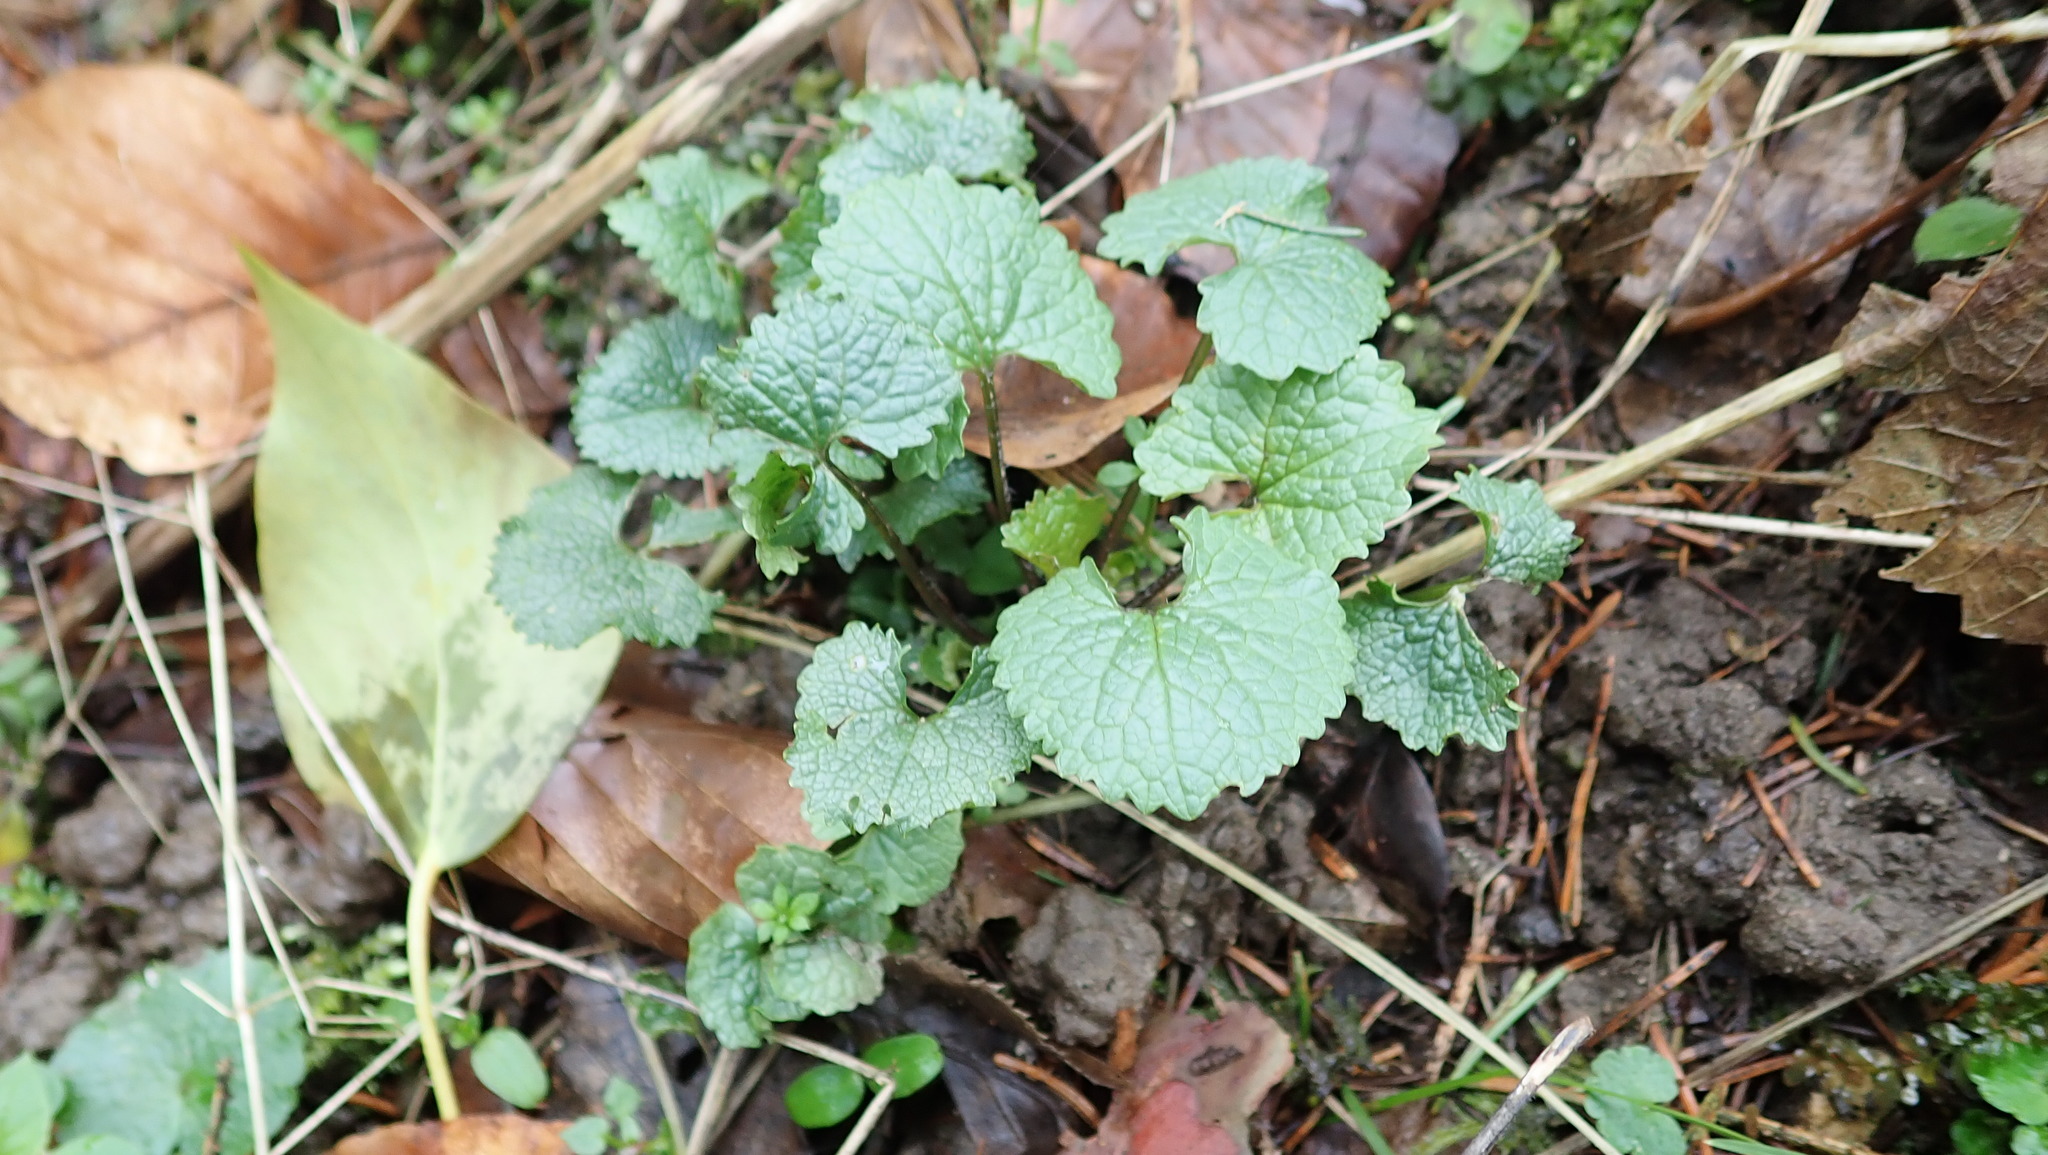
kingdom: Plantae
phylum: Tracheophyta
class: Magnoliopsida
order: Brassicales
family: Brassicaceae
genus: Alliaria
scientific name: Alliaria petiolata
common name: Garlic mustard
